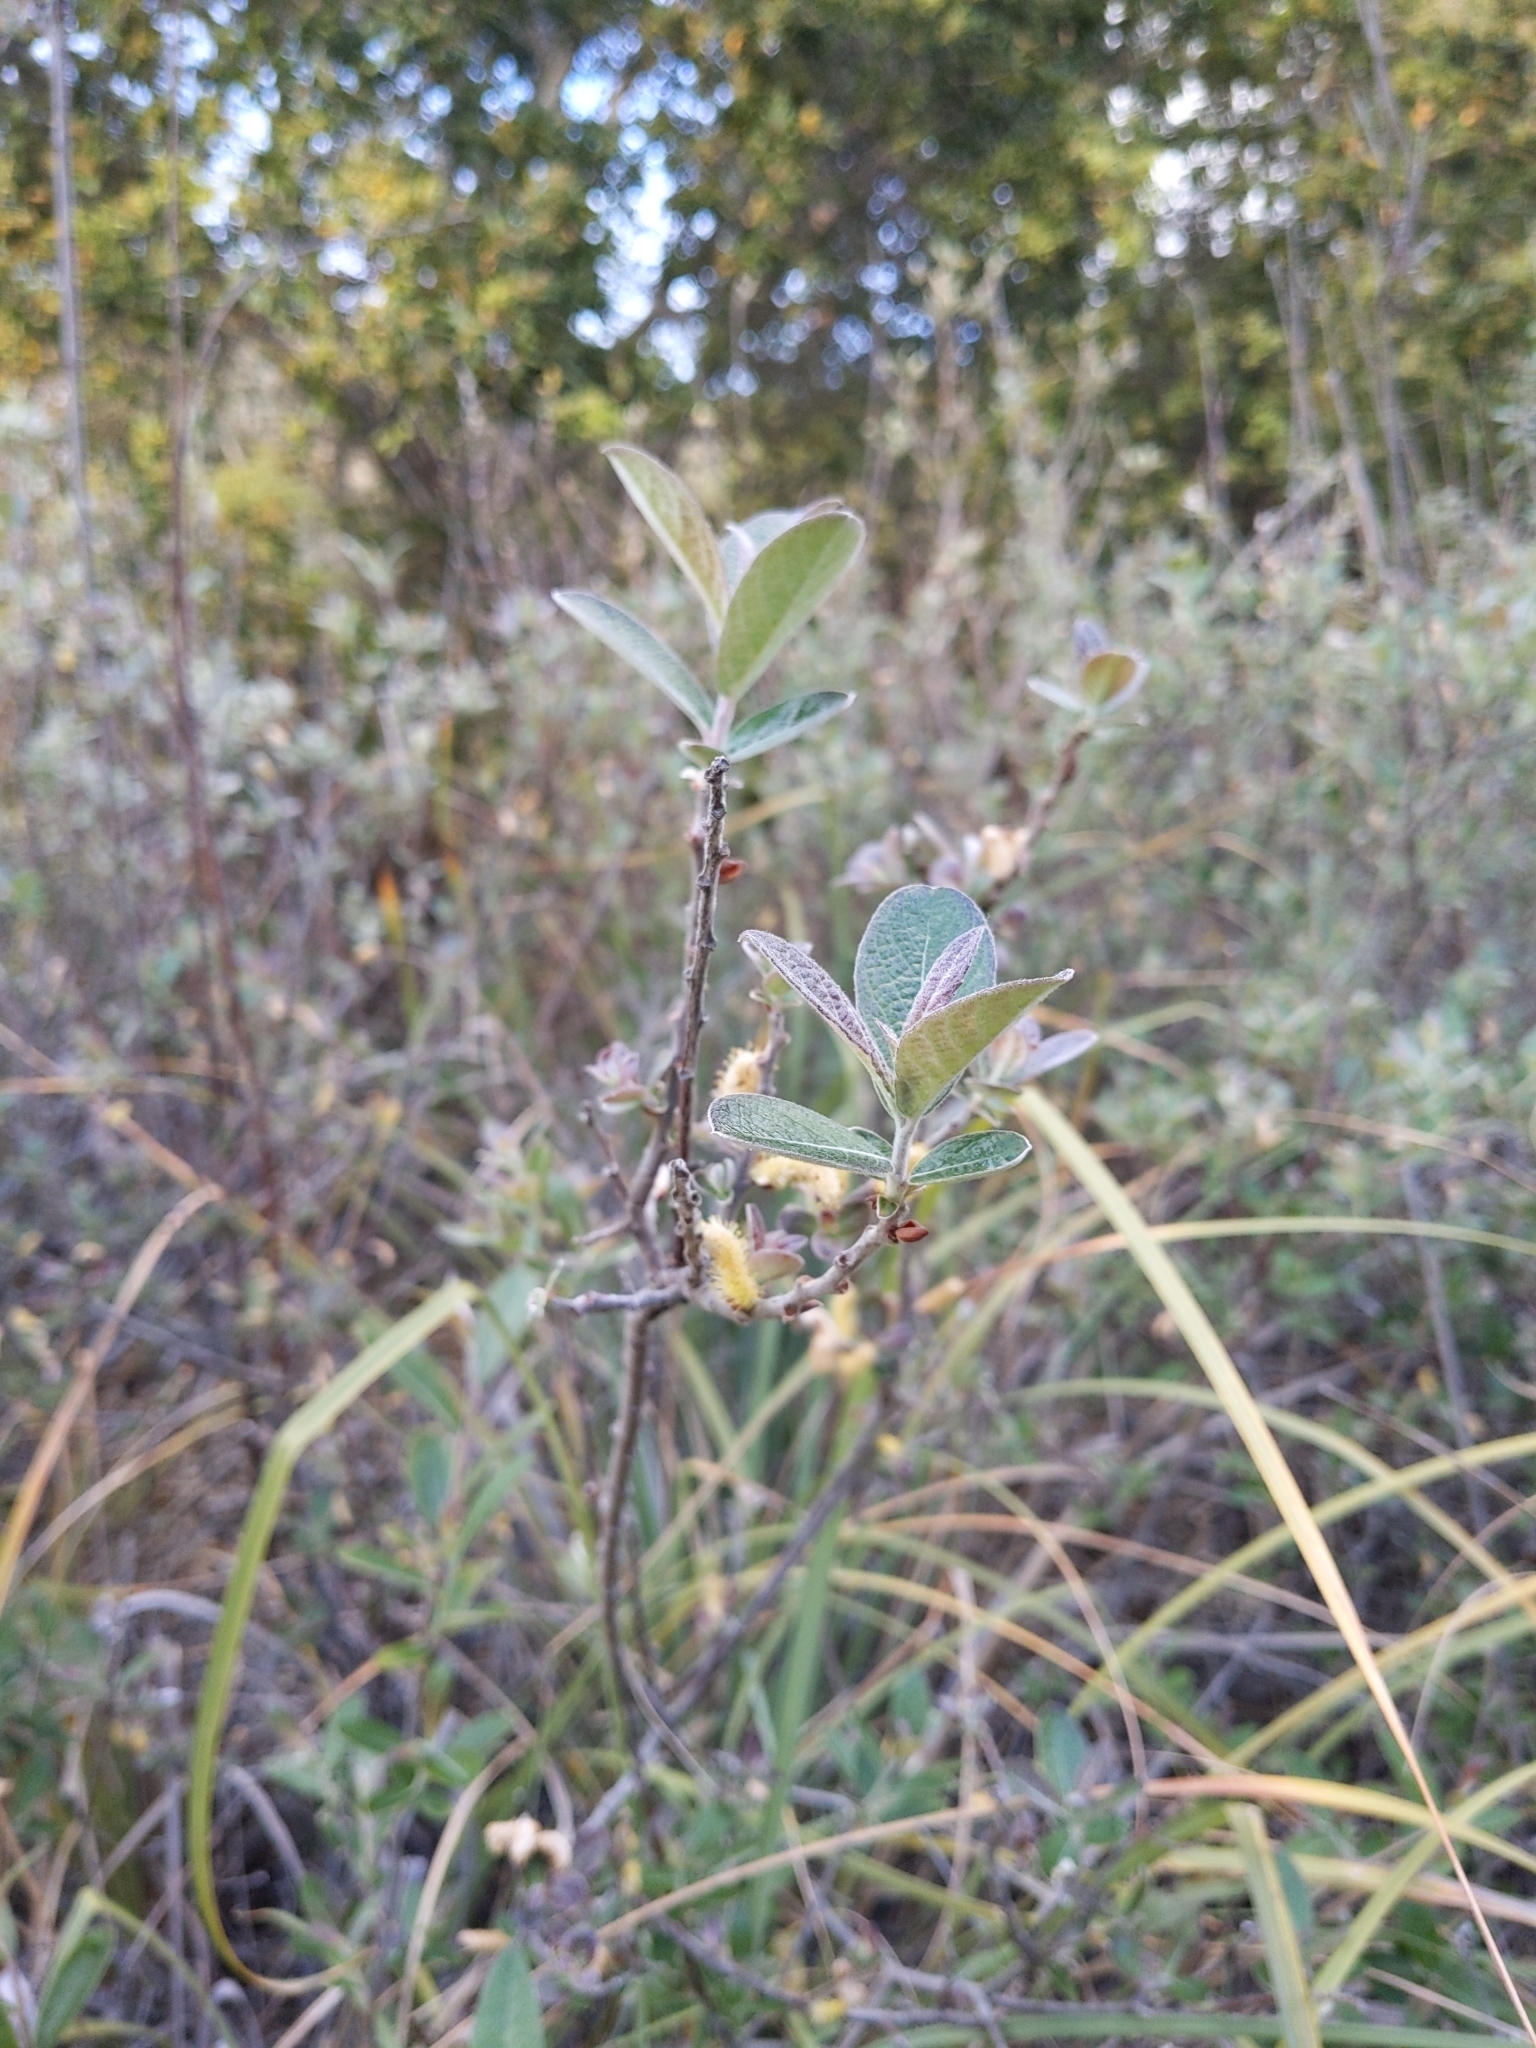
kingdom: Plantae
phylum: Tracheophyta
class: Magnoliopsida
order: Malpighiales
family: Salicaceae
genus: Salix
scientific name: Salix breweri
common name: Brewer’s willow
